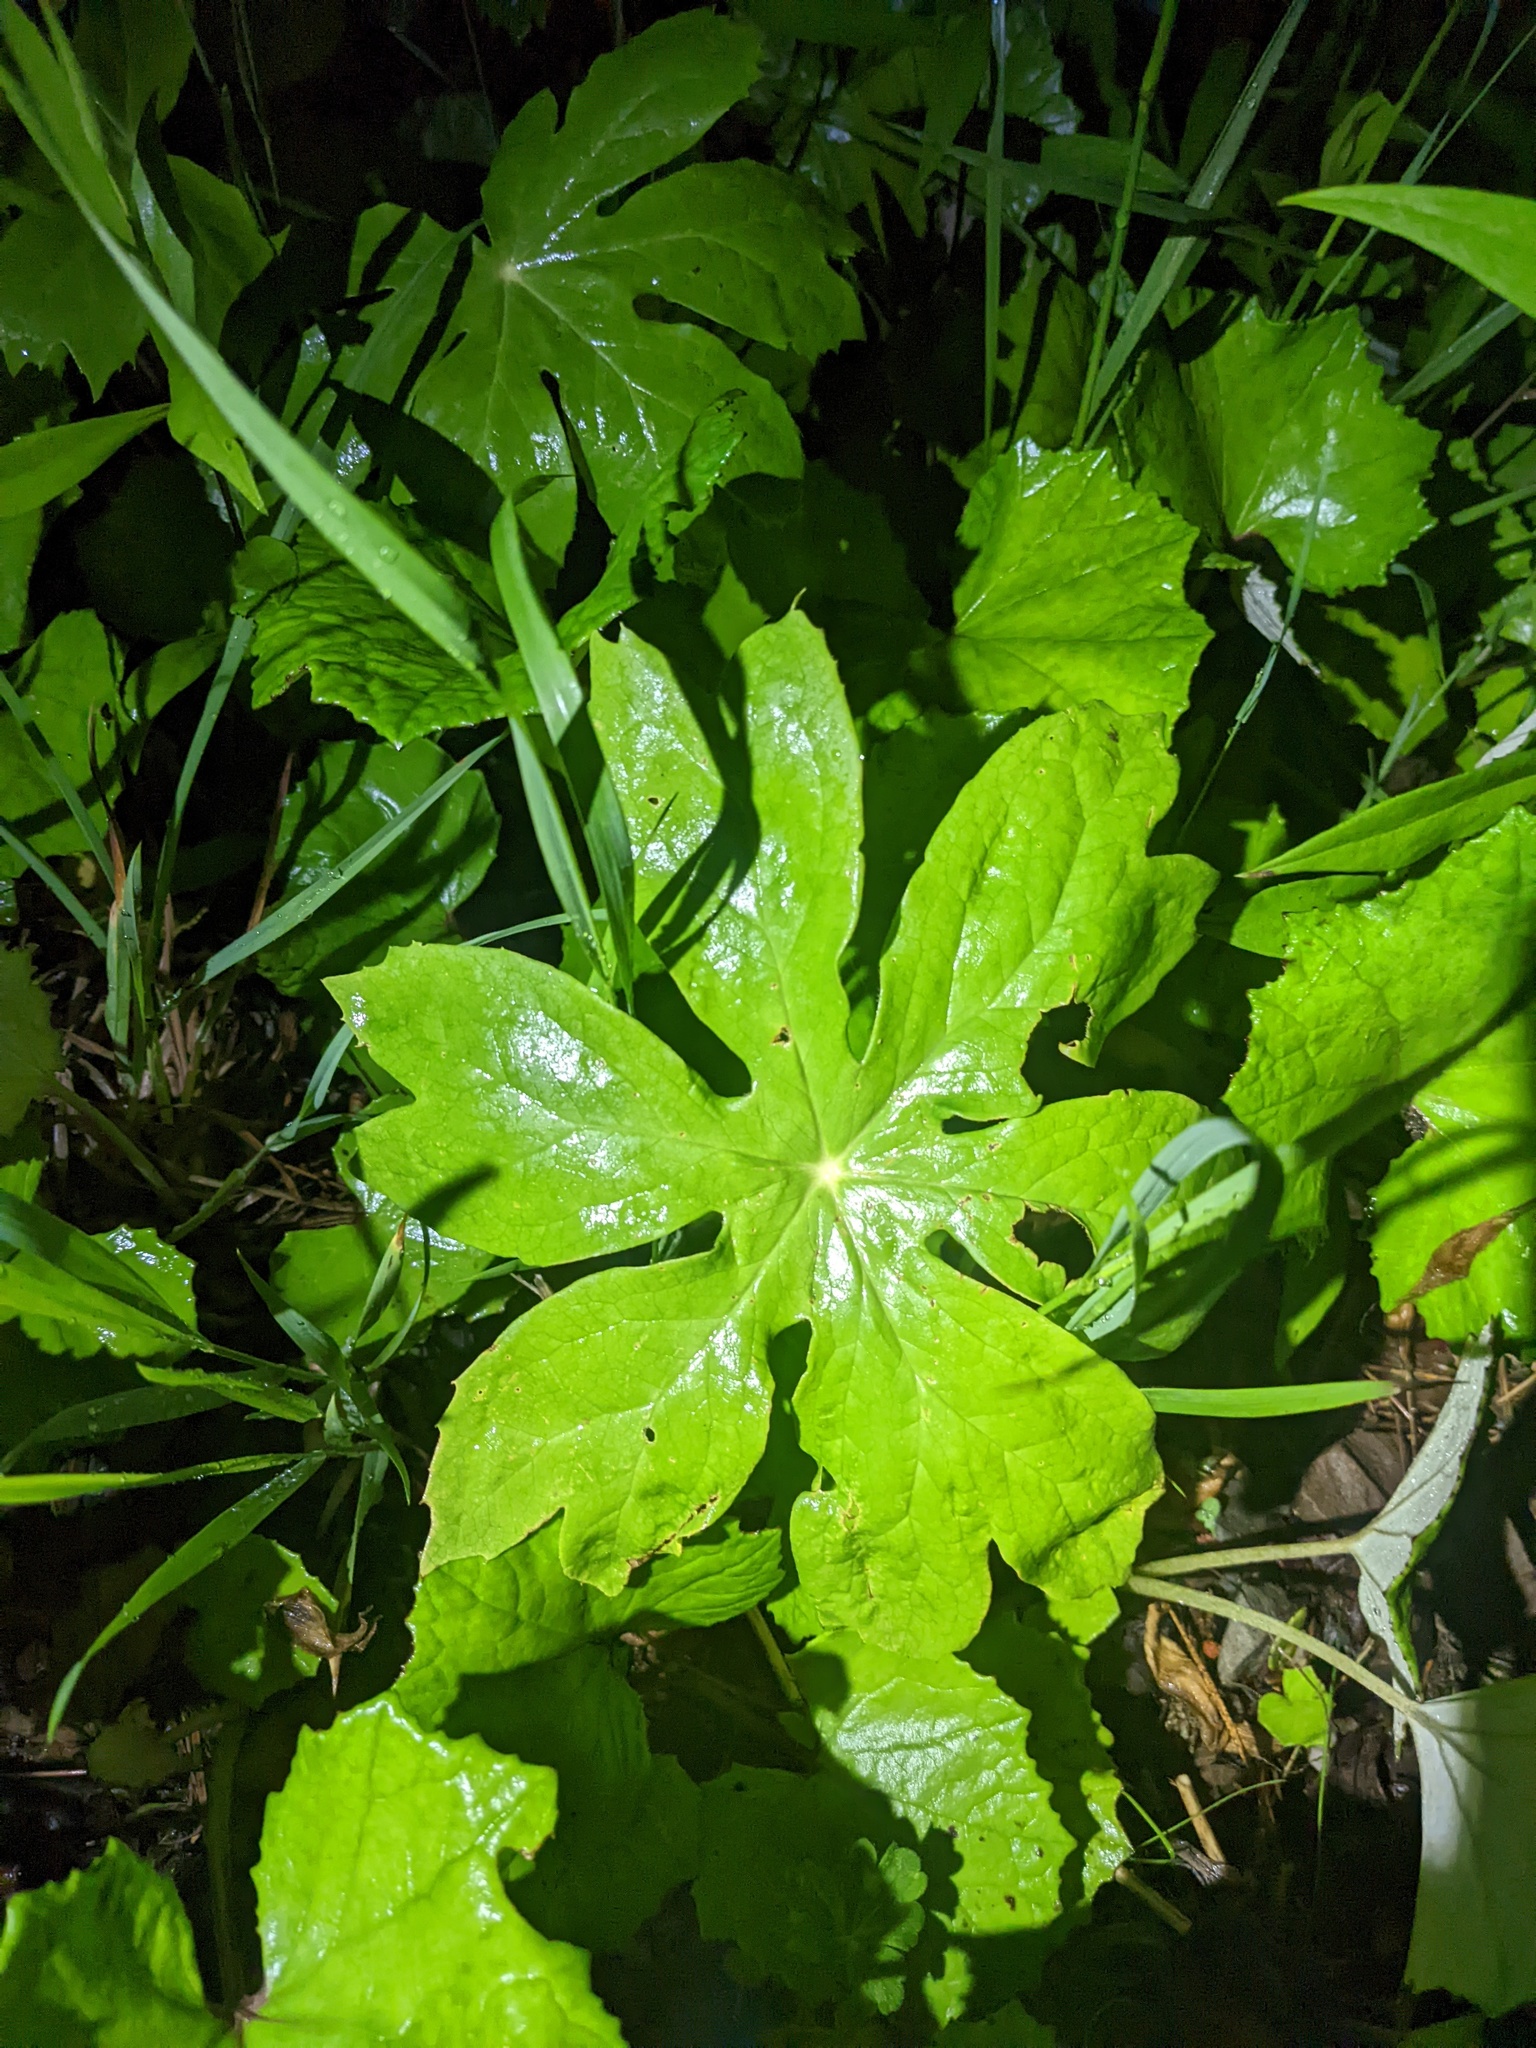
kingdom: Plantae
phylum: Tracheophyta
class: Magnoliopsida
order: Ranunculales
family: Berberidaceae
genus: Podophyllum
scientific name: Podophyllum peltatum
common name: Wild mandrake
